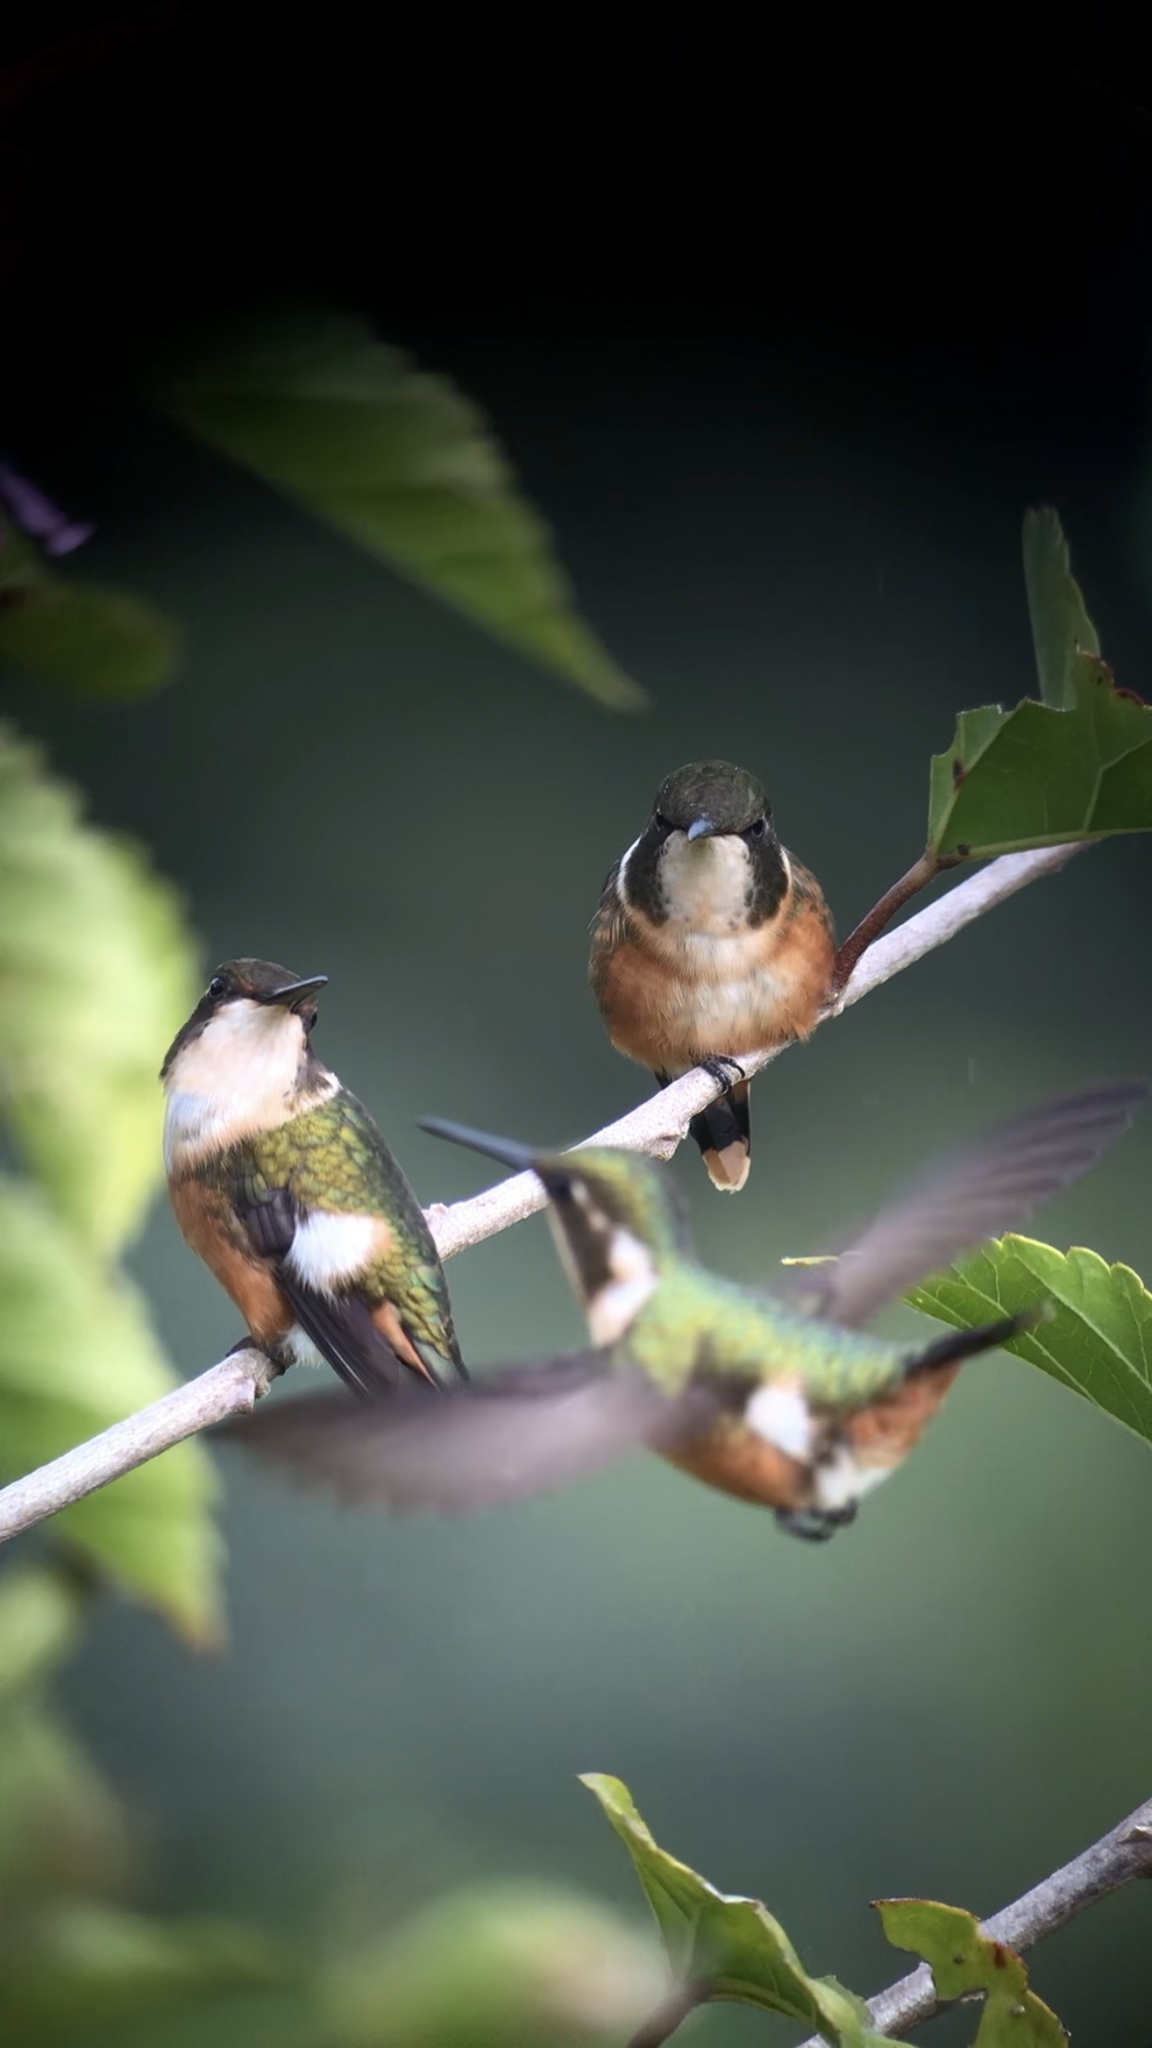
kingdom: Animalia
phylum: Chordata
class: Aves
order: Apodiformes
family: Trochilidae
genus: Calliphlox
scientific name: Calliphlox bryantae
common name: Magenta-throated woodstar
